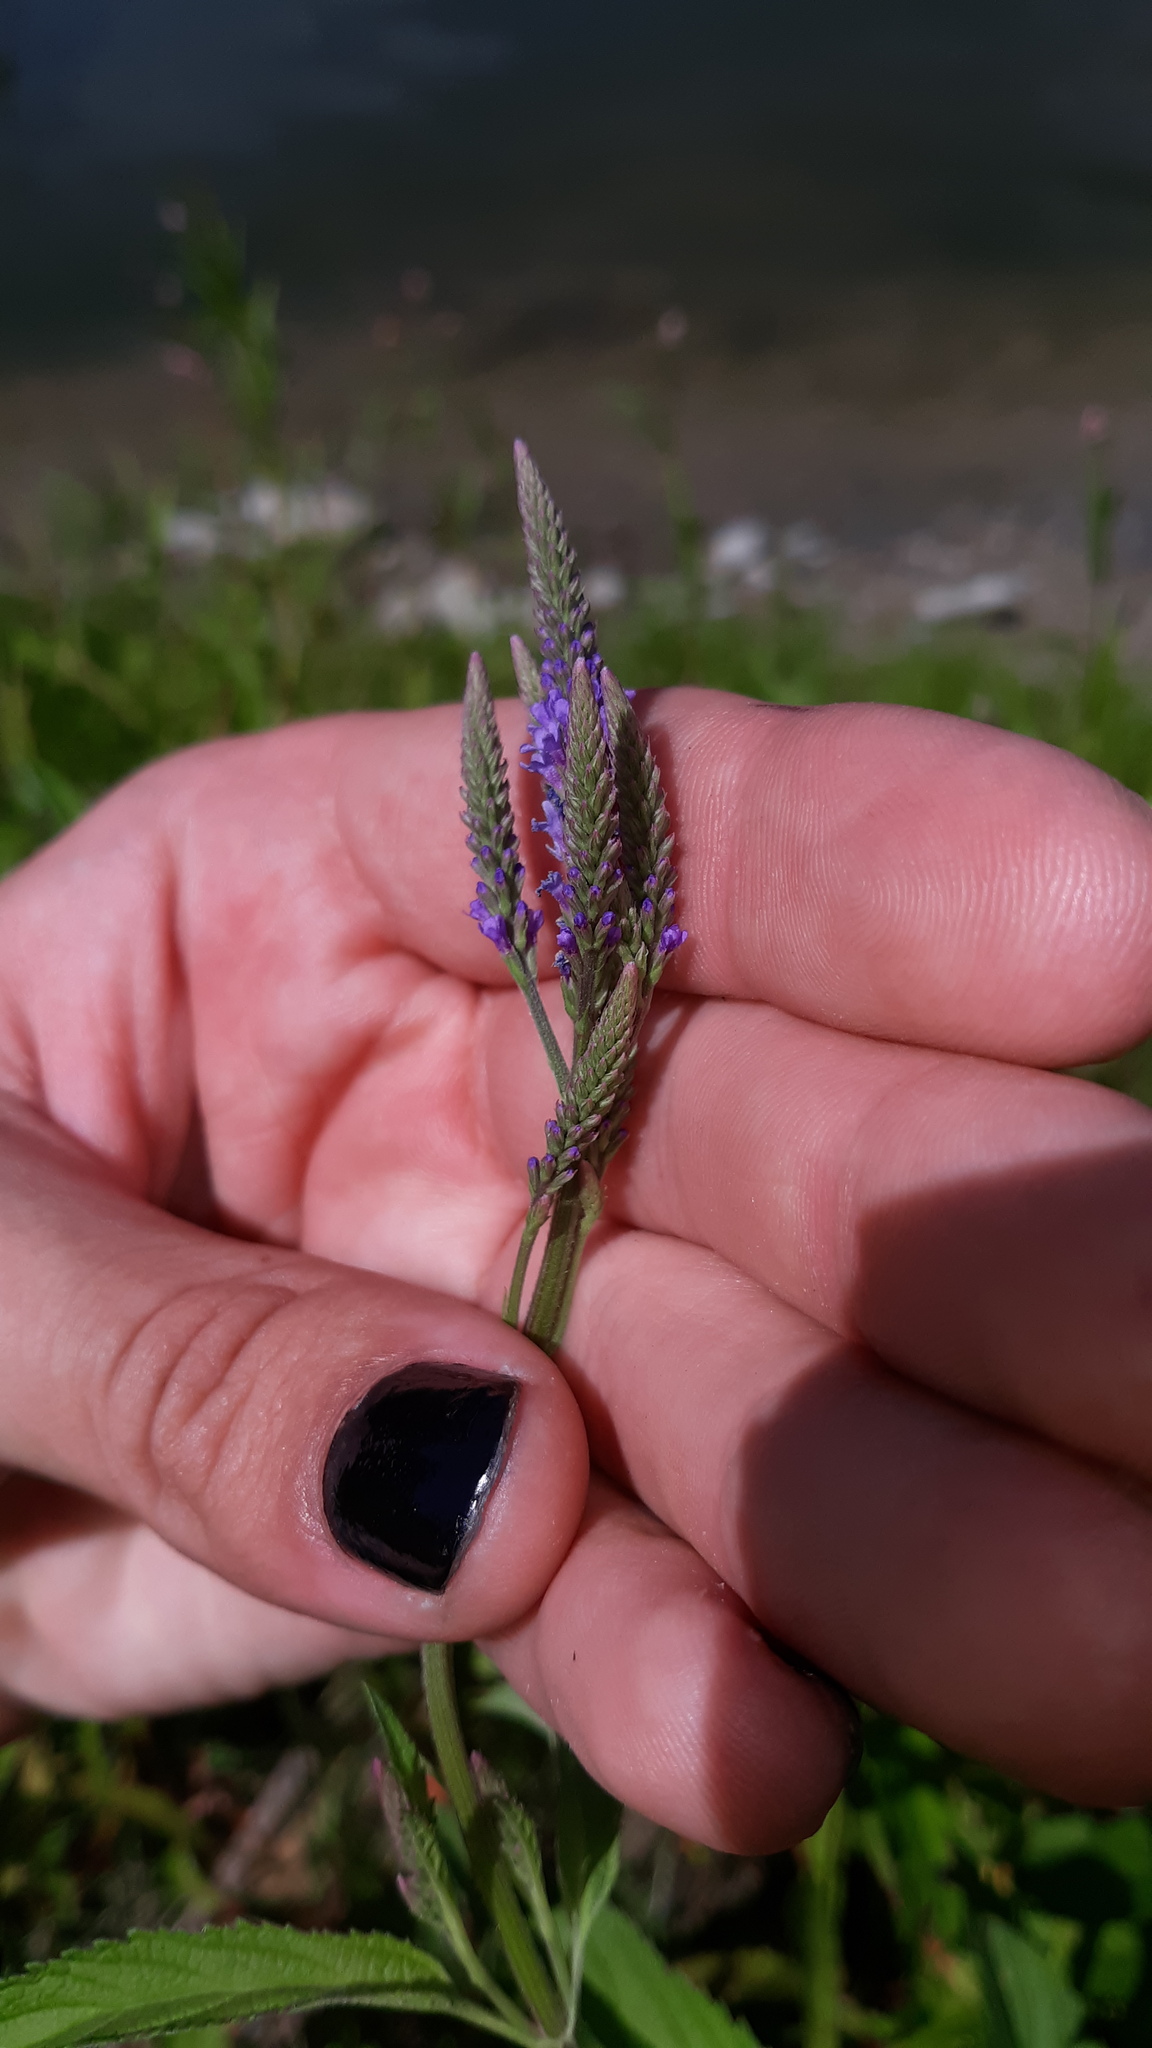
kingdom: Plantae
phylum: Tracheophyta
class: Magnoliopsida
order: Lamiales
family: Verbenaceae
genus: Verbena
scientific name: Verbena hastata
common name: American blue vervain
